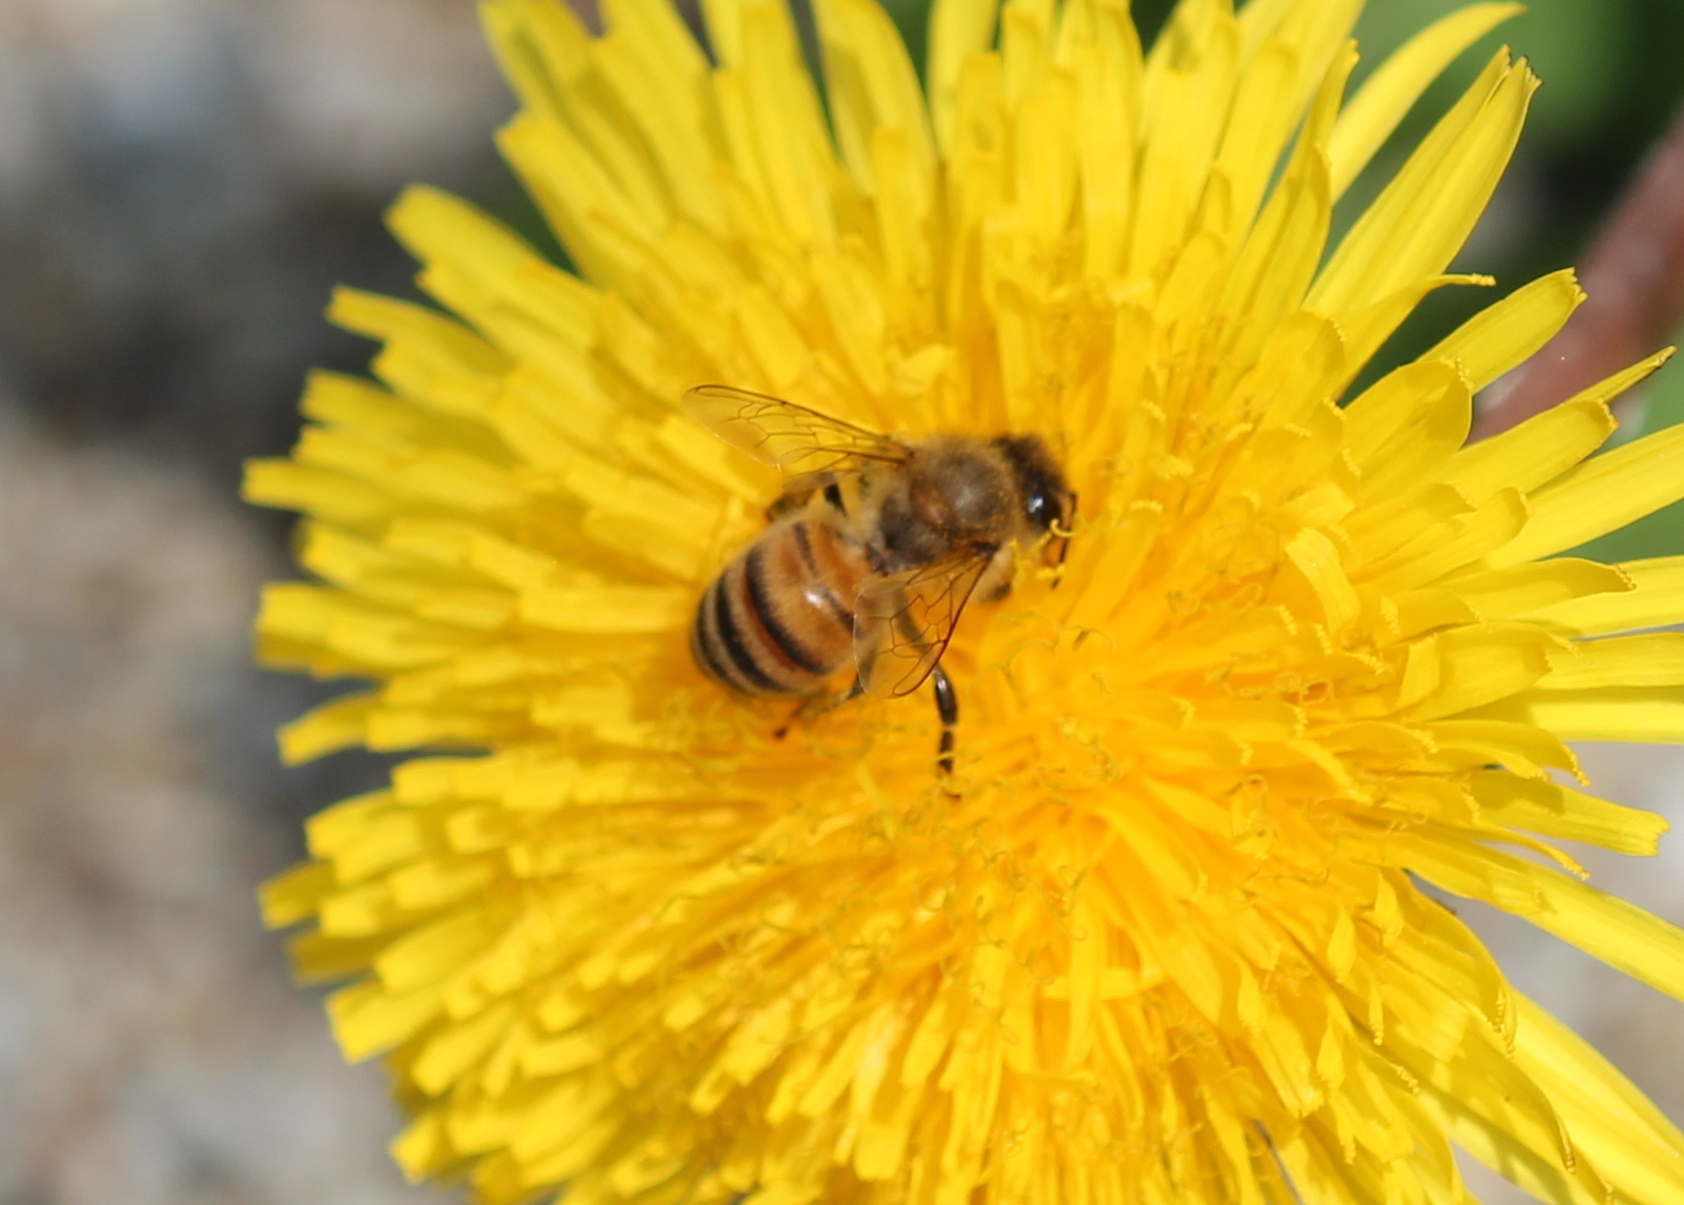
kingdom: Animalia
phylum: Arthropoda
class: Insecta
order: Hymenoptera
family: Apidae
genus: Apis
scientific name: Apis mellifera
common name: Honey bee
